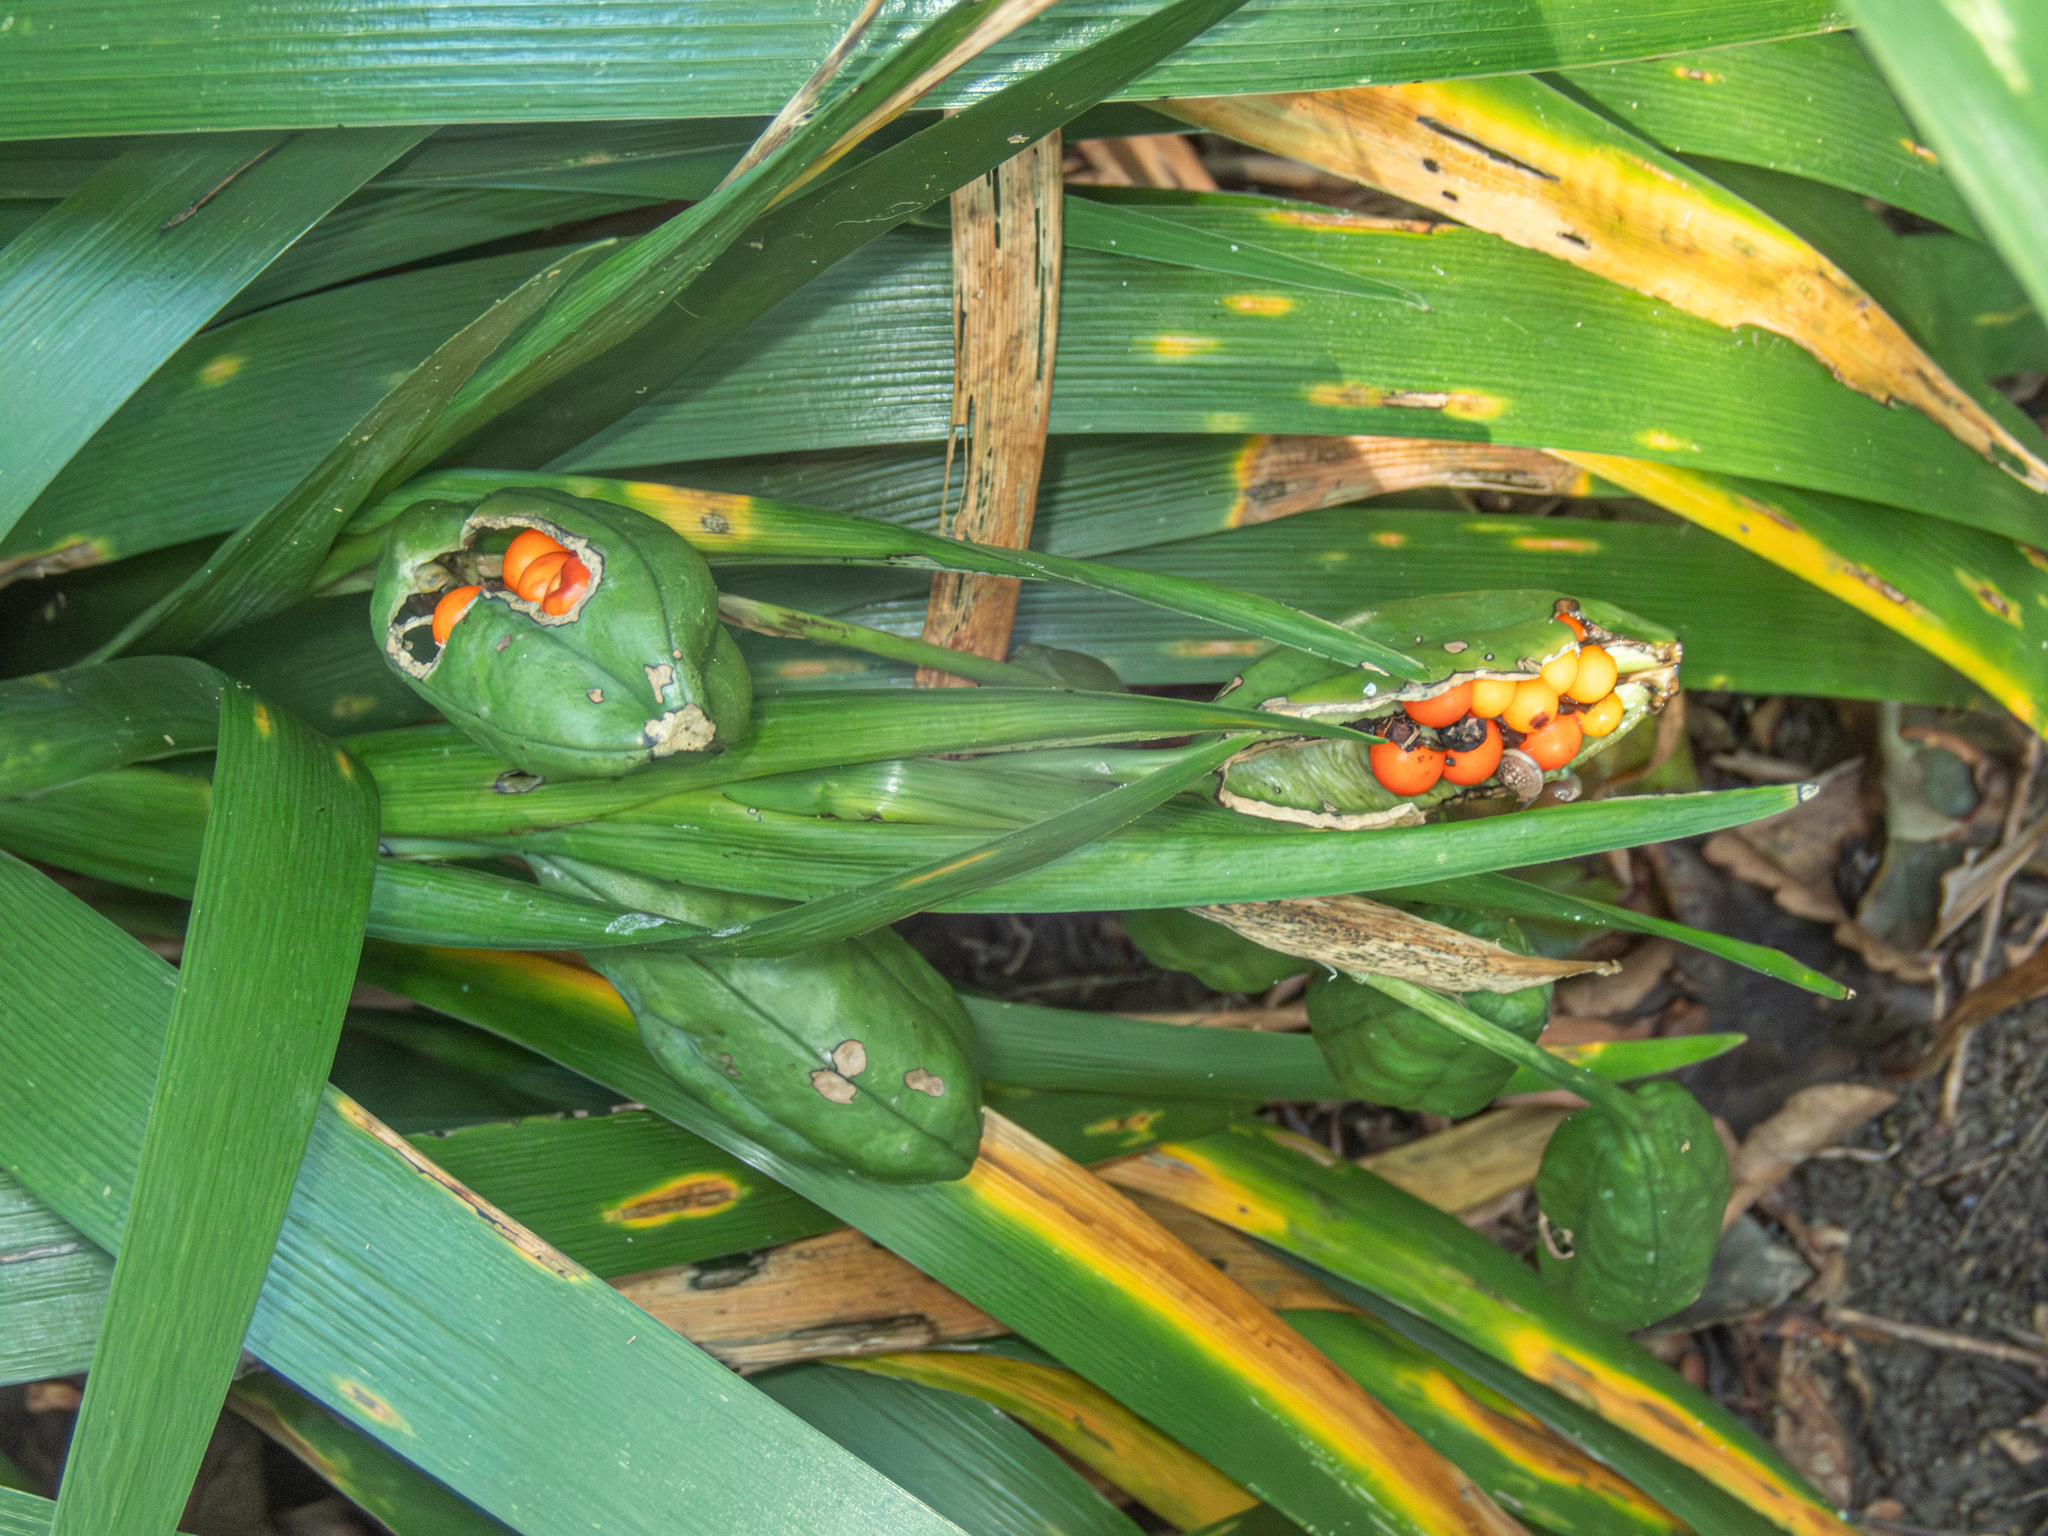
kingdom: Plantae
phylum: Tracheophyta
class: Liliopsida
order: Asparagales
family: Iridaceae
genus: Iris
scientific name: Iris foetidissima
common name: Stinking iris
